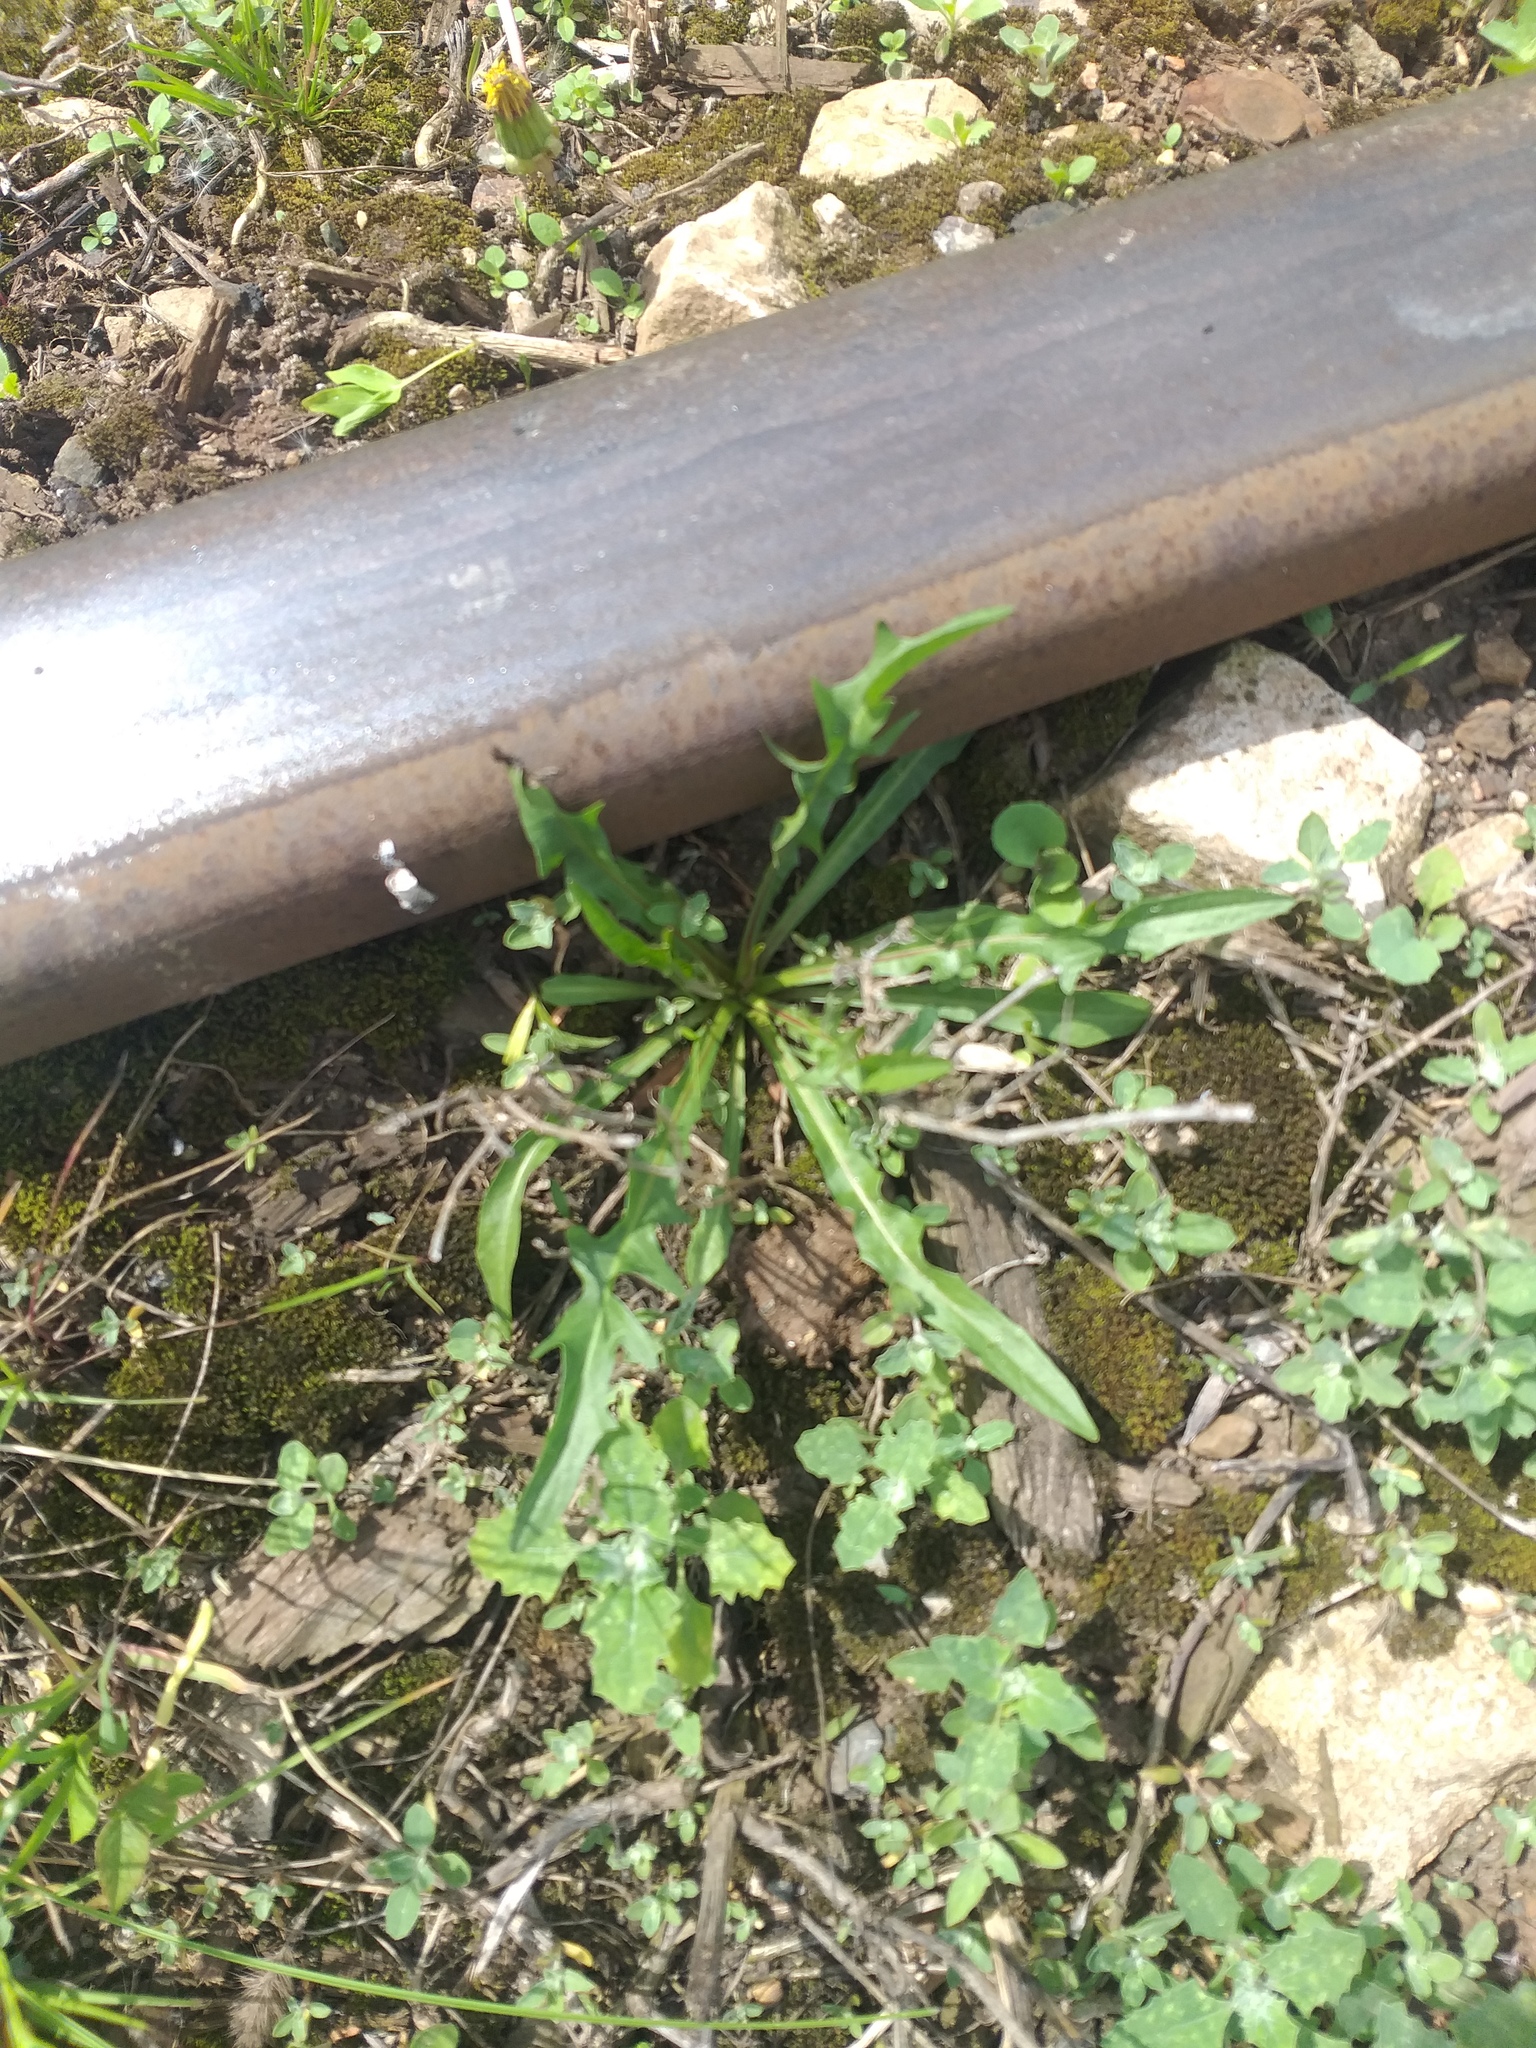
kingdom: Plantae
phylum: Tracheophyta
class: Magnoliopsida
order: Asterales
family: Asteraceae
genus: Scorzoneroides
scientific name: Scorzoneroides autumnalis
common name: Autumn hawkbit
